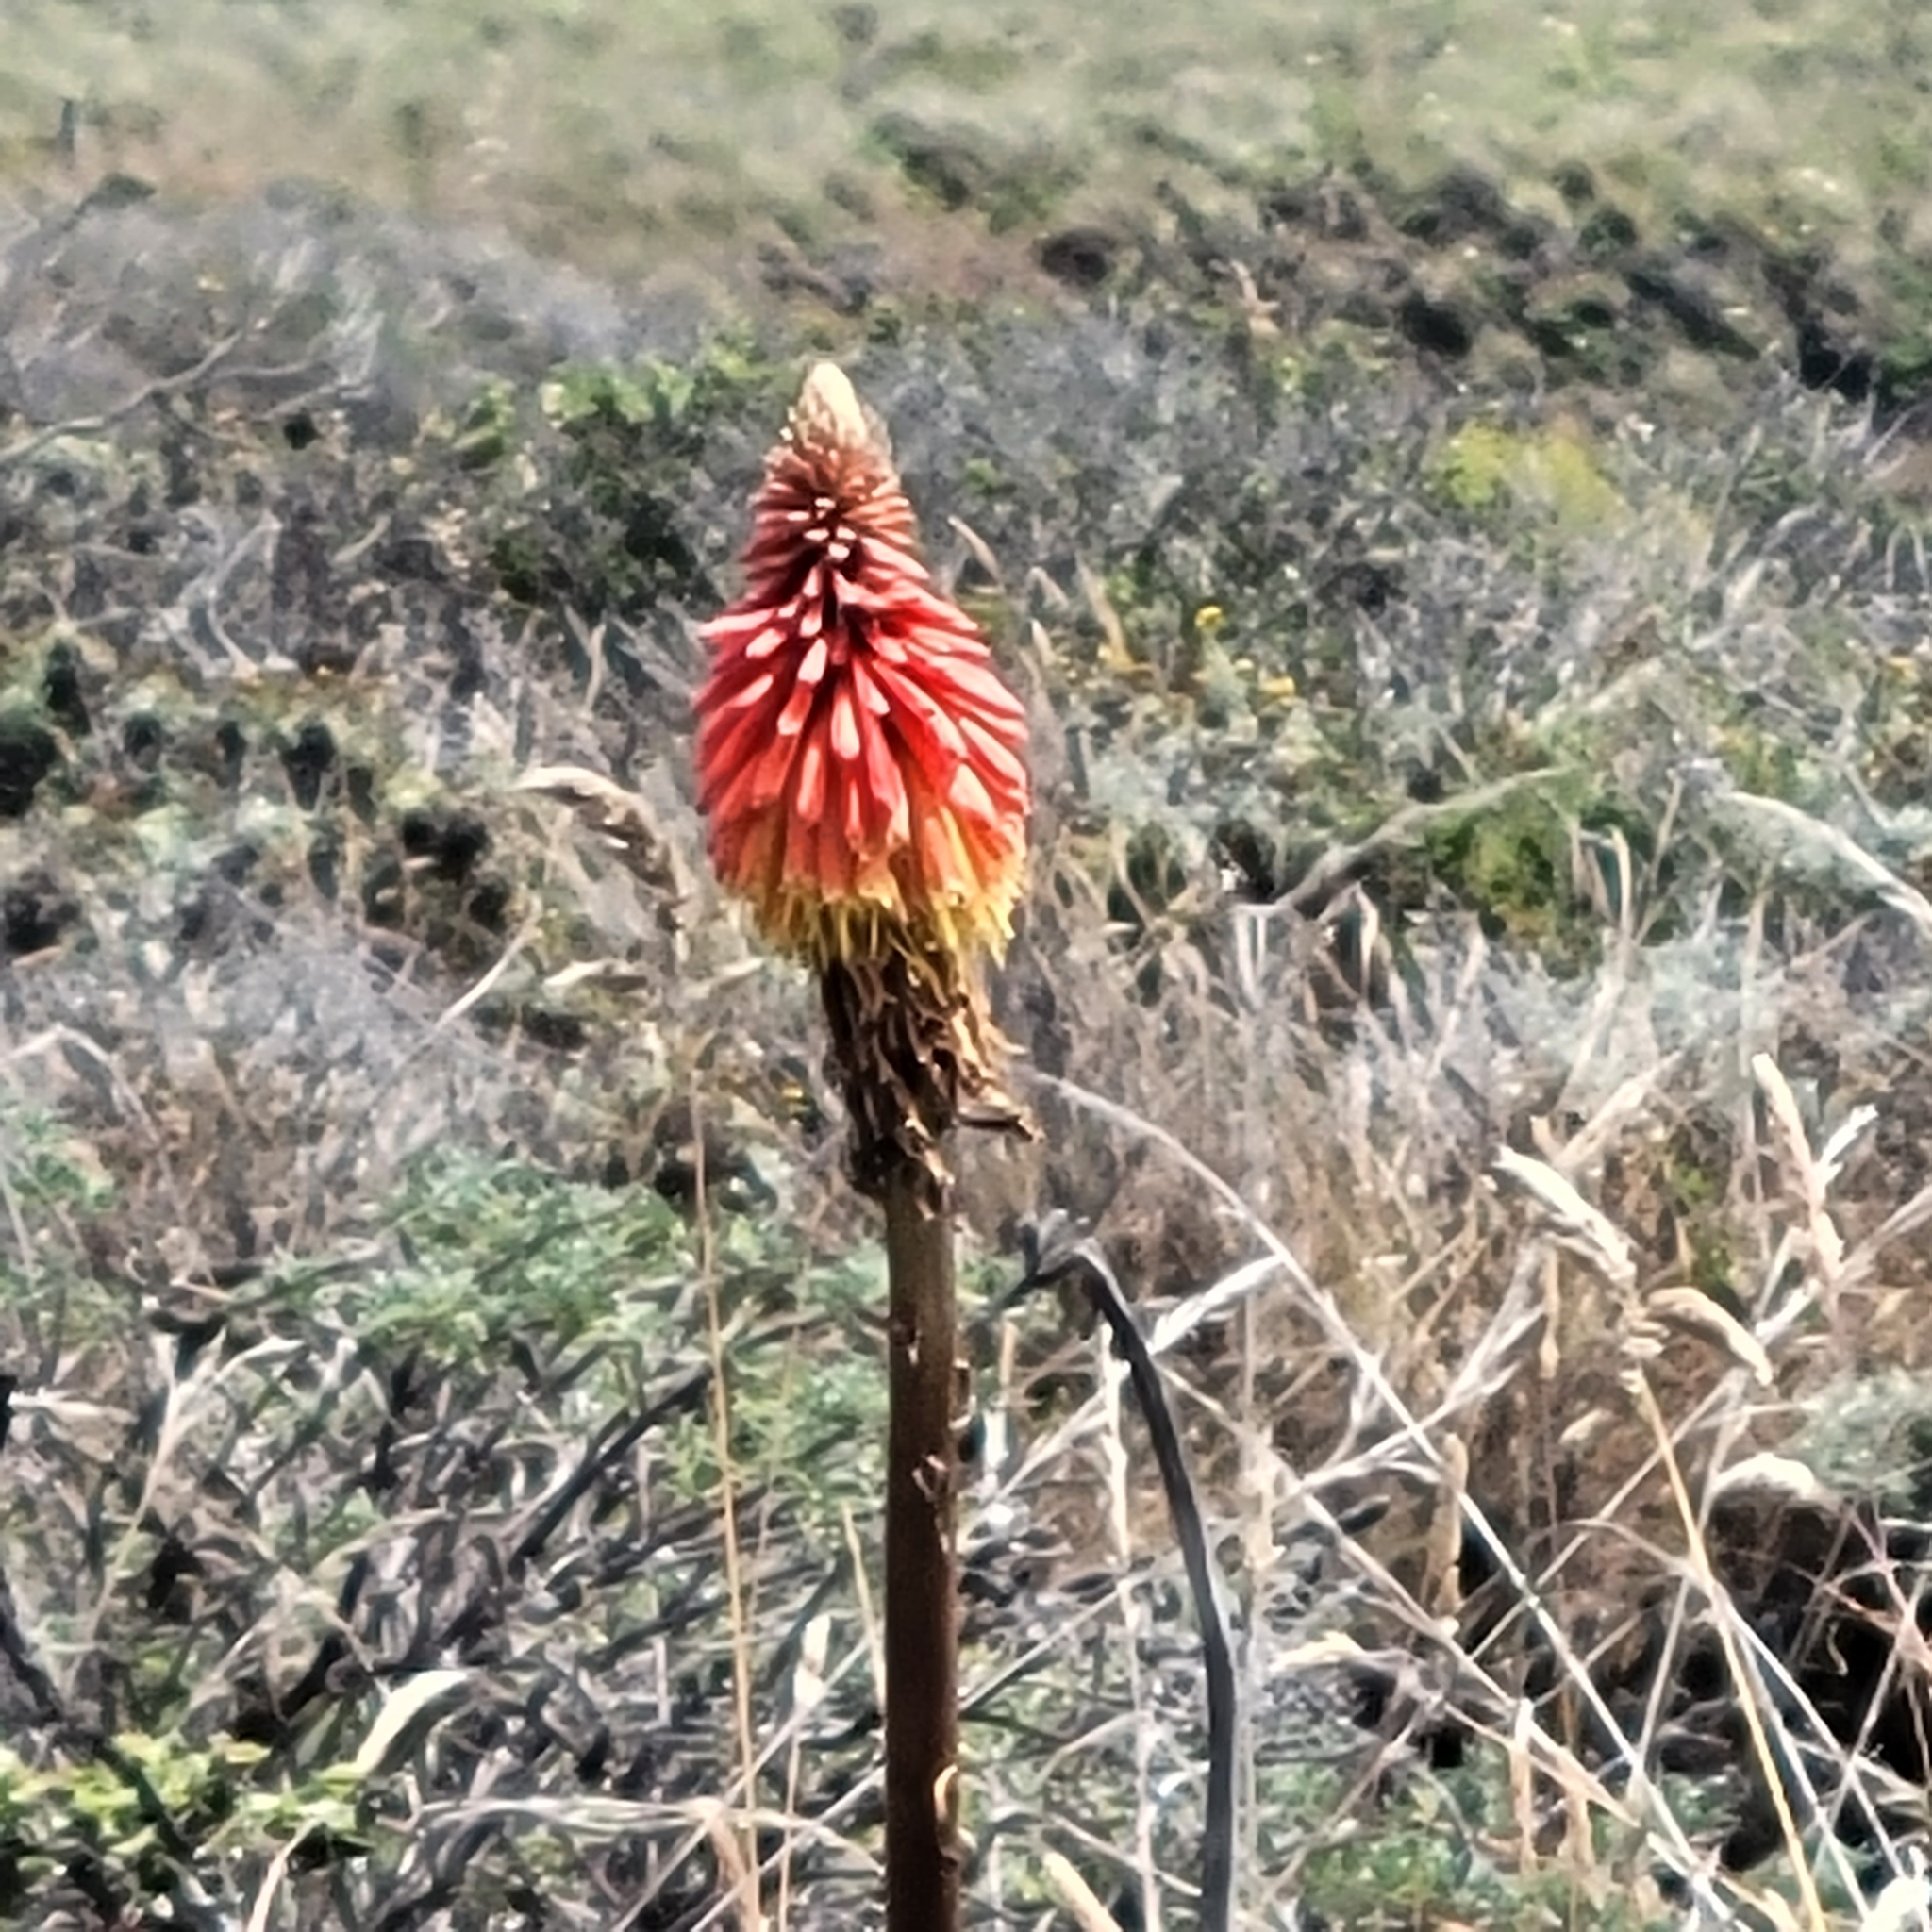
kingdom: Plantae
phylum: Tracheophyta
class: Liliopsida
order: Asparagales
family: Asphodelaceae
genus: Kniphofia
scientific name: Kniphofia uvaria
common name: Red-hot-poker
